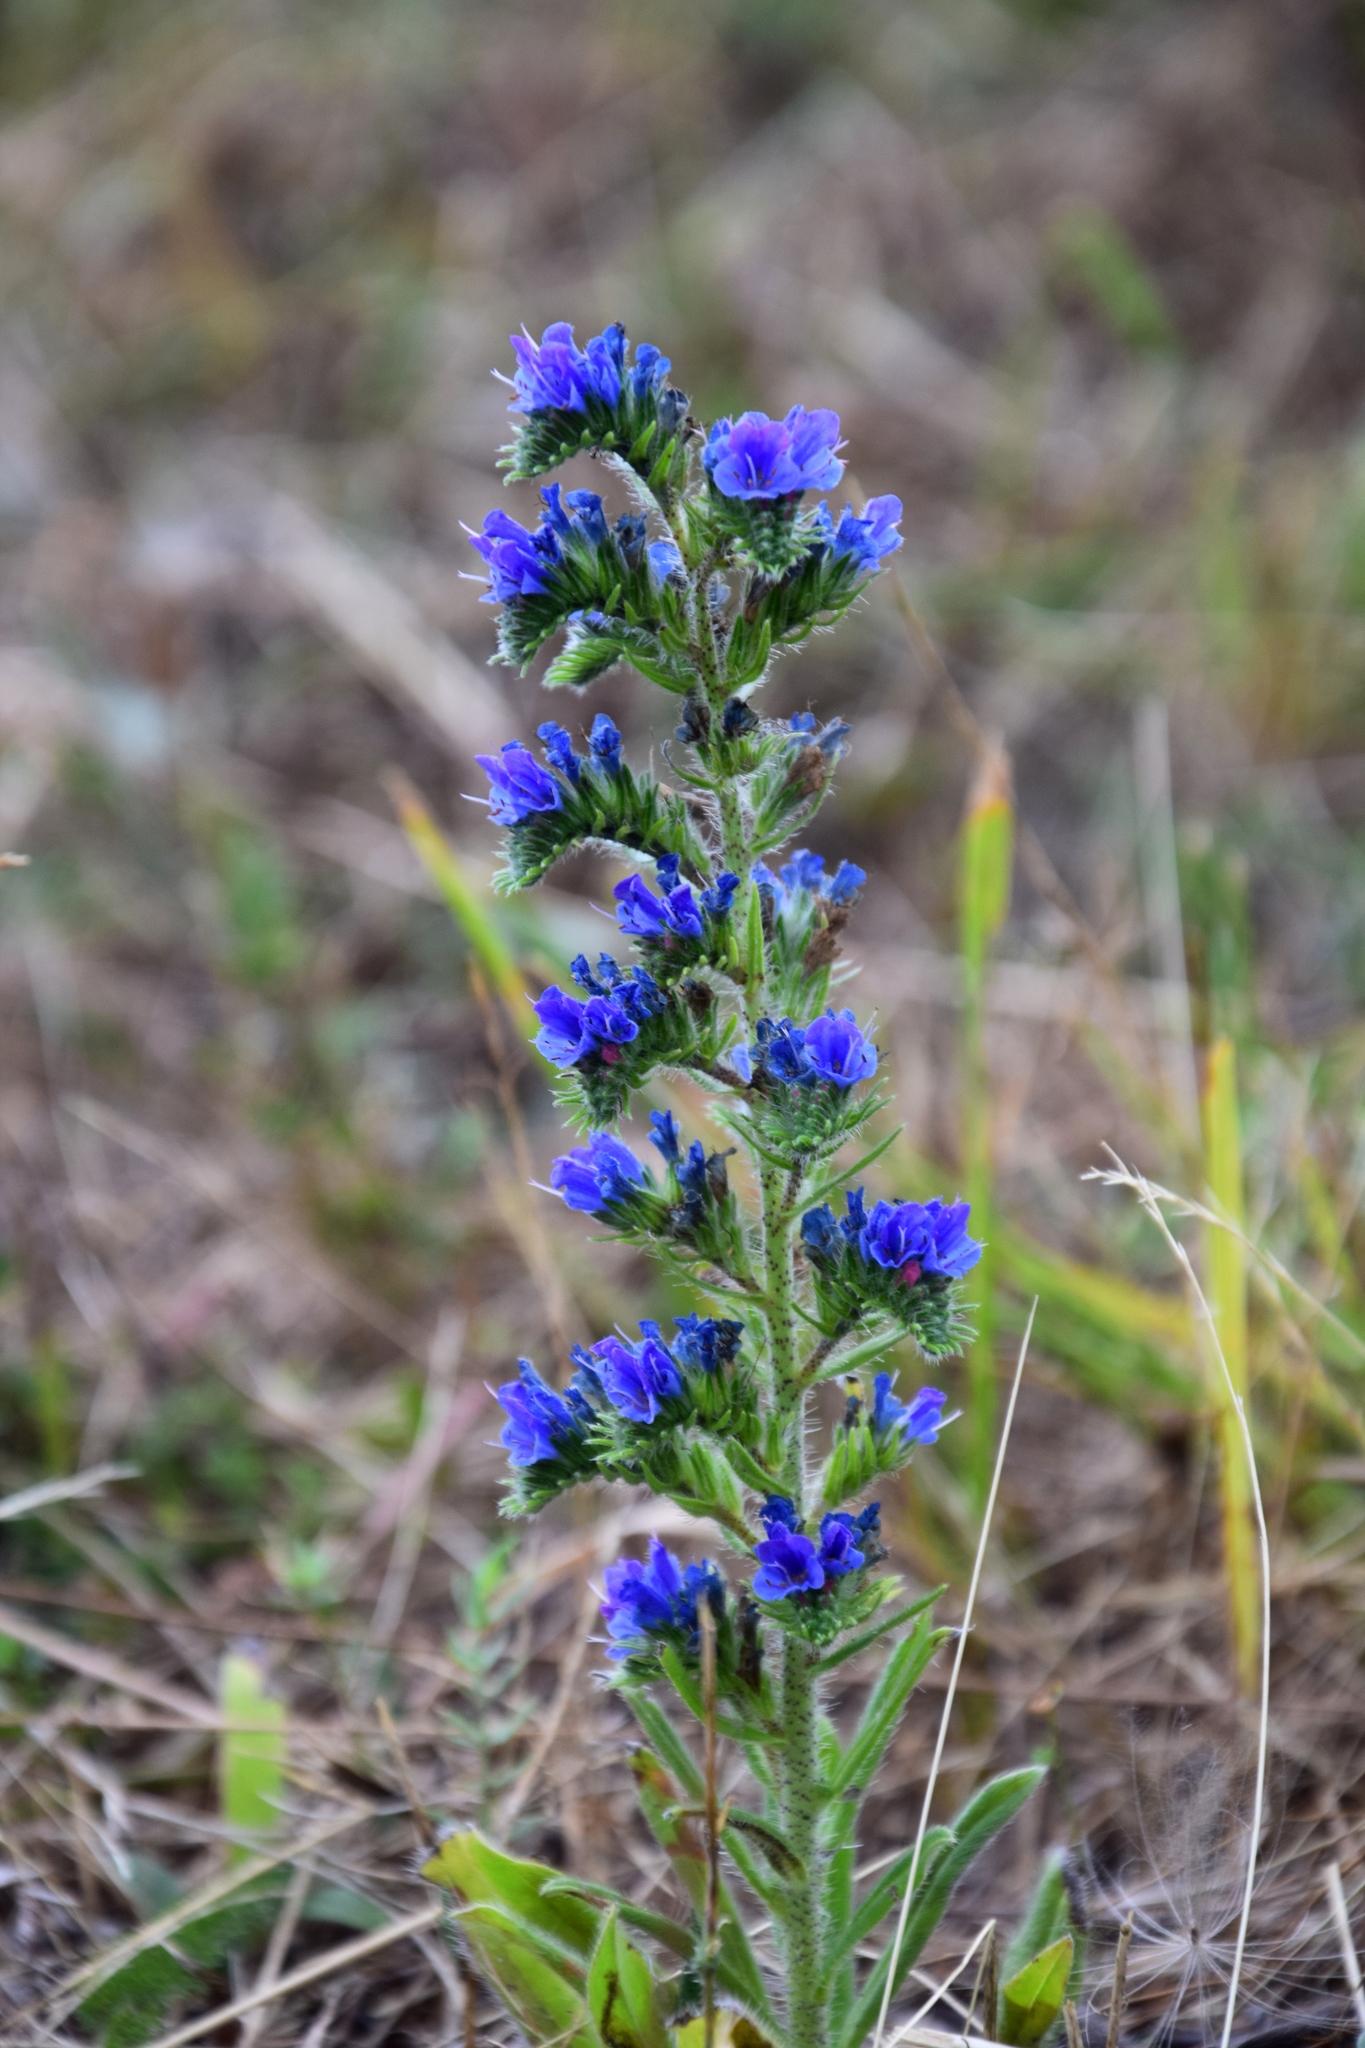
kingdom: Plantae
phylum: Tracheophyta
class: Magnoliopsida
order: Boraginales
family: Boraginaceae
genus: Echium
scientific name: Echium vulgare
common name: Common viper's bugloss
